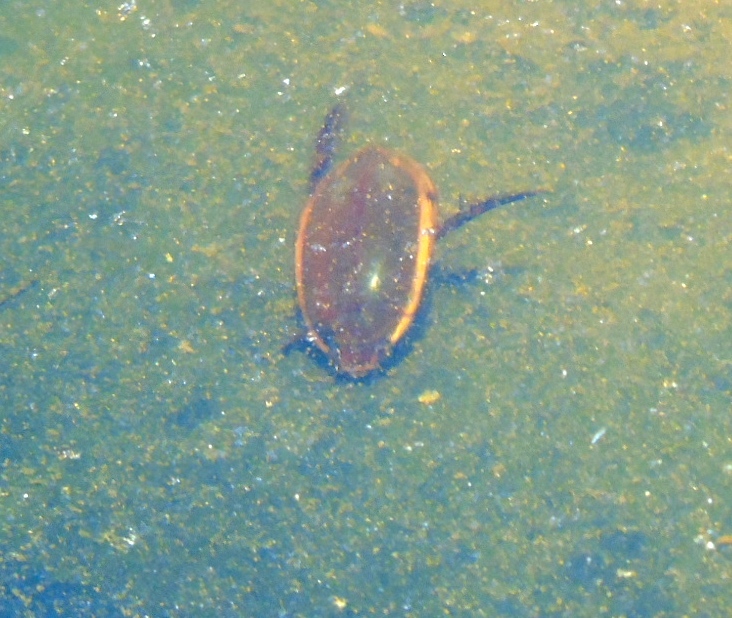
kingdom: Animalia
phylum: Arthropoda
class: Insecta
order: Coleoptera
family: Dytiscidae
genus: Cybister
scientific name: Cybister
